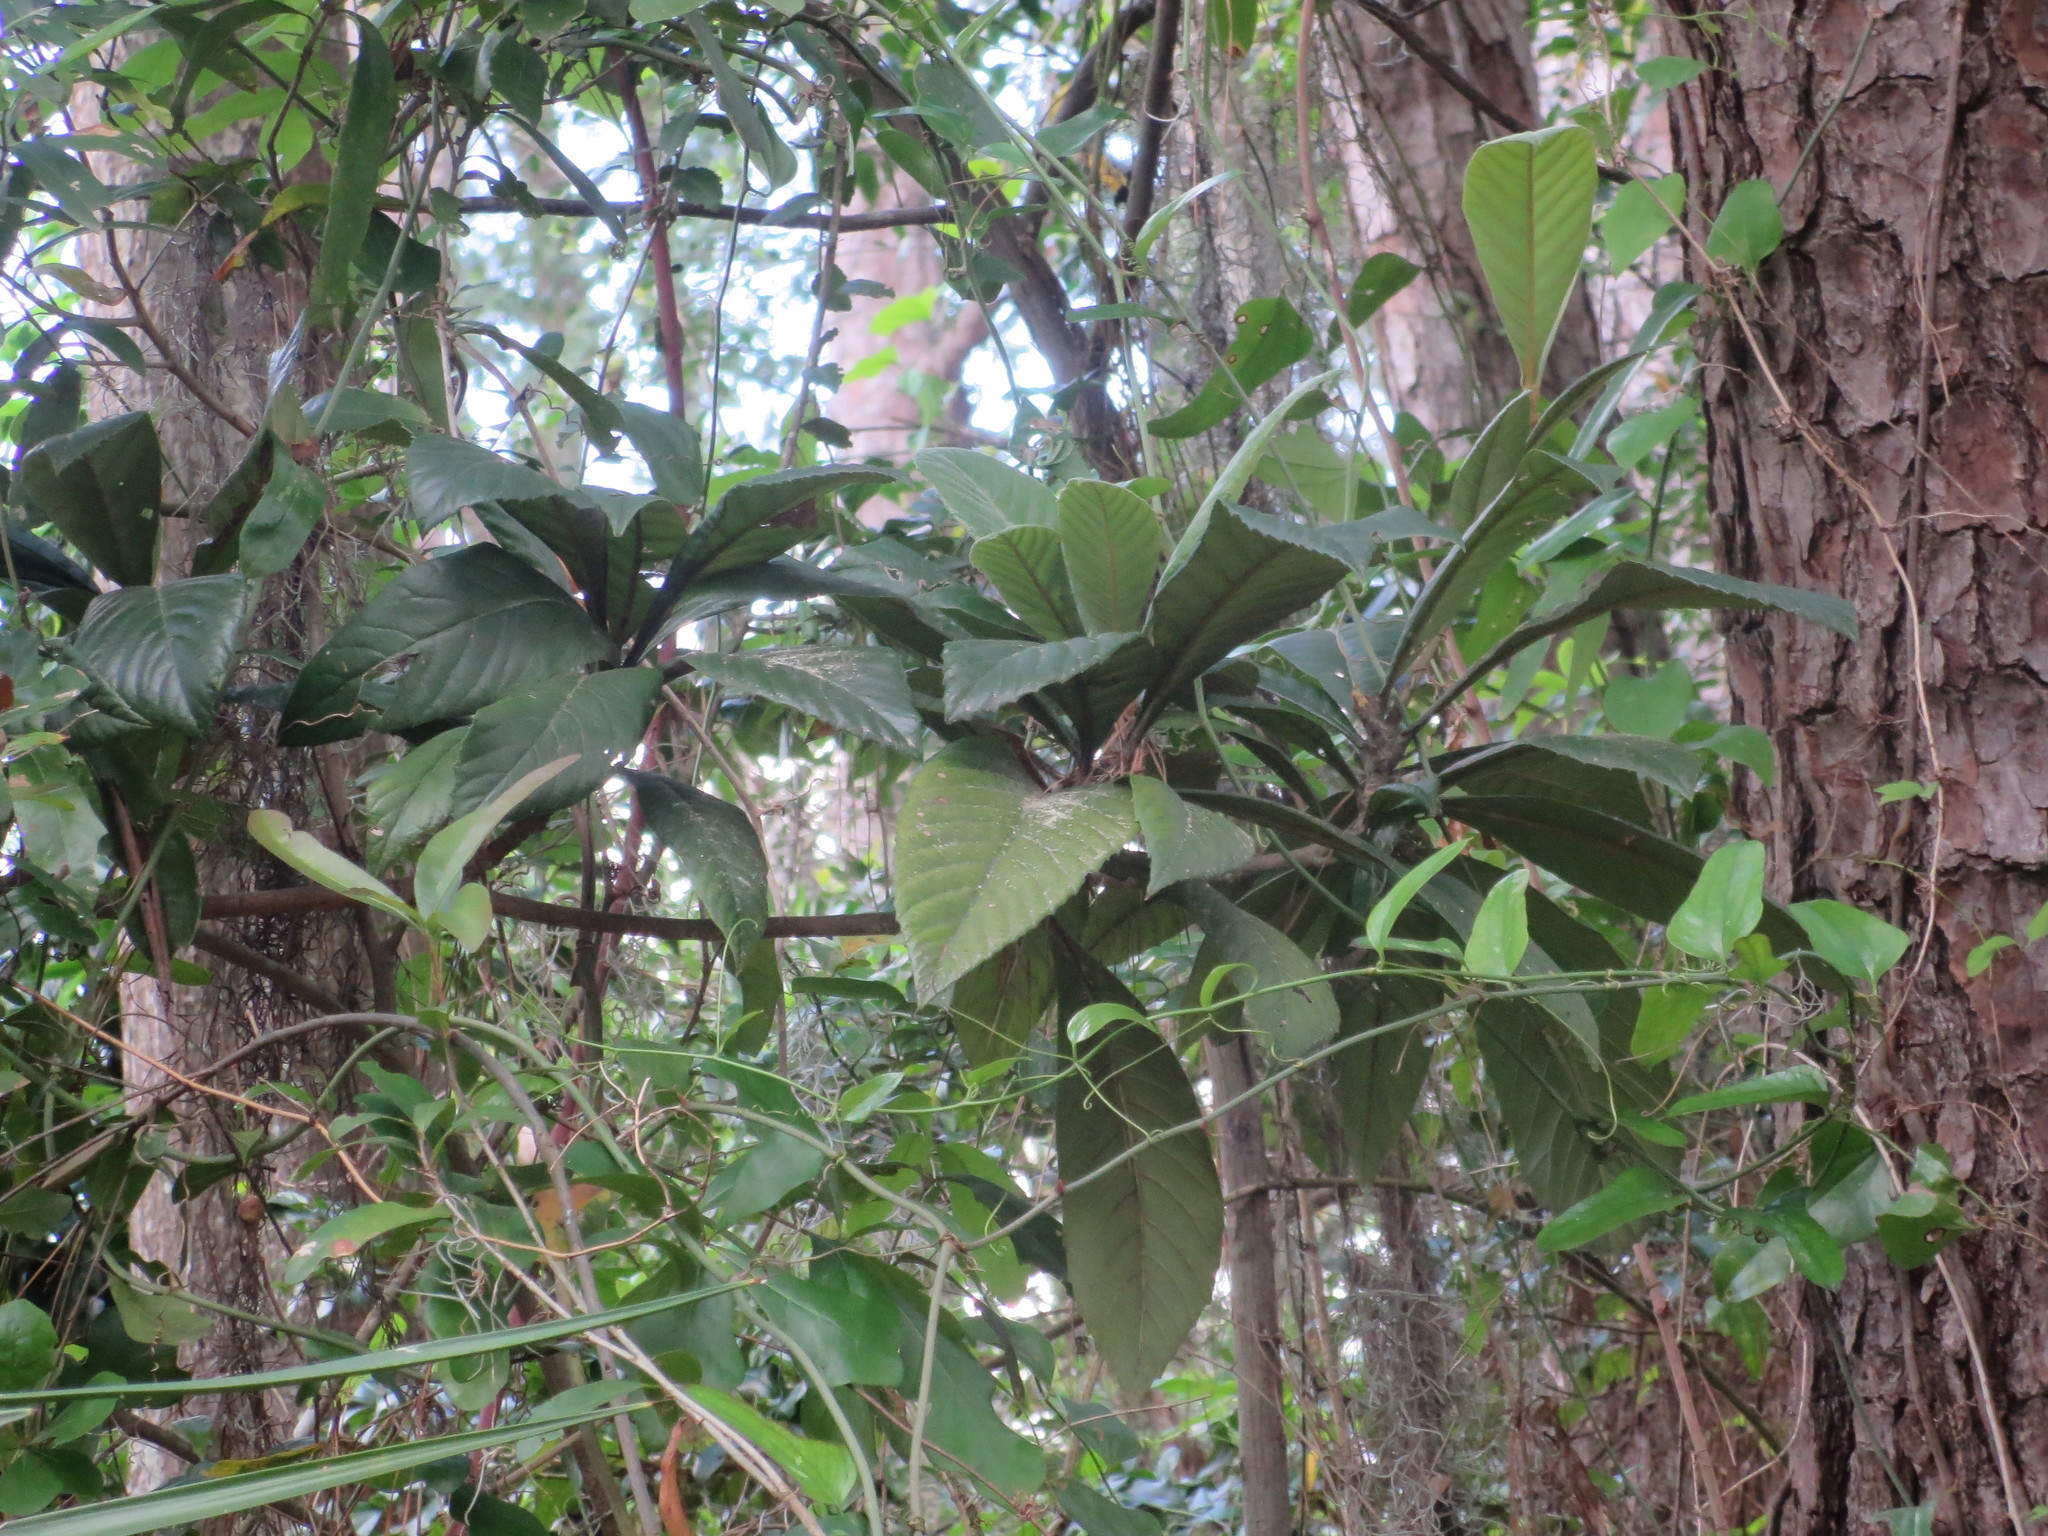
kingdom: Plantae
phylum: Tracheophyta
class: Magnoliopsida
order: Rosales
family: Rosaceae
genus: Rhaphiolepis
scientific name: Rhaphiolepis bibas
